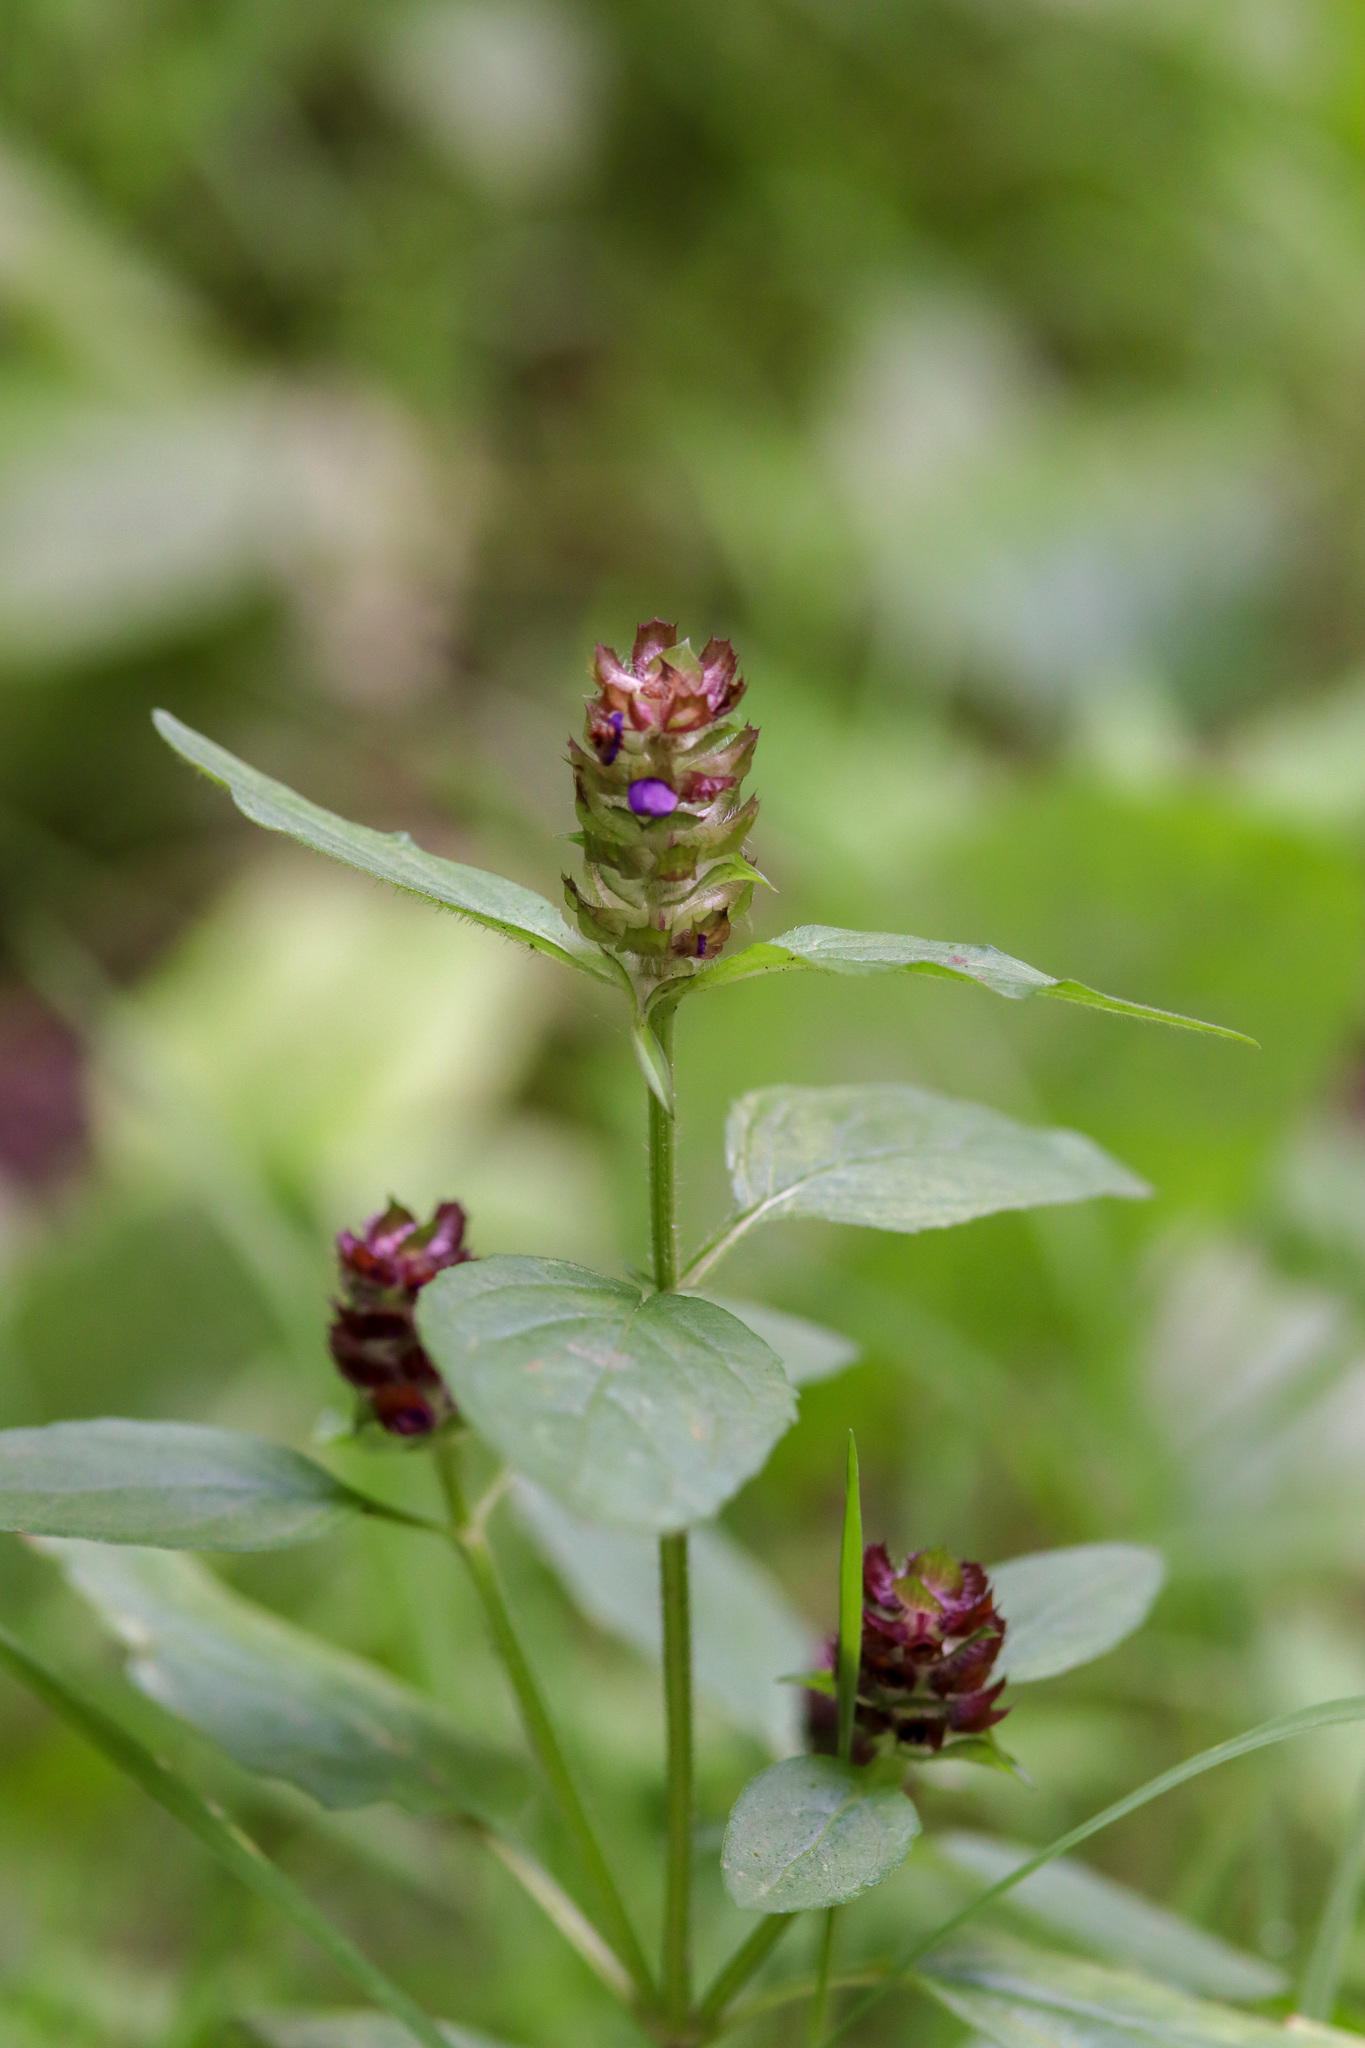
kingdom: Plantae
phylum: Tracheophyta
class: Magnoliopsida
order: Lamiales
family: Lamiaceae
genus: Prunella
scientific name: Prunella vulgaris
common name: Heal-all
